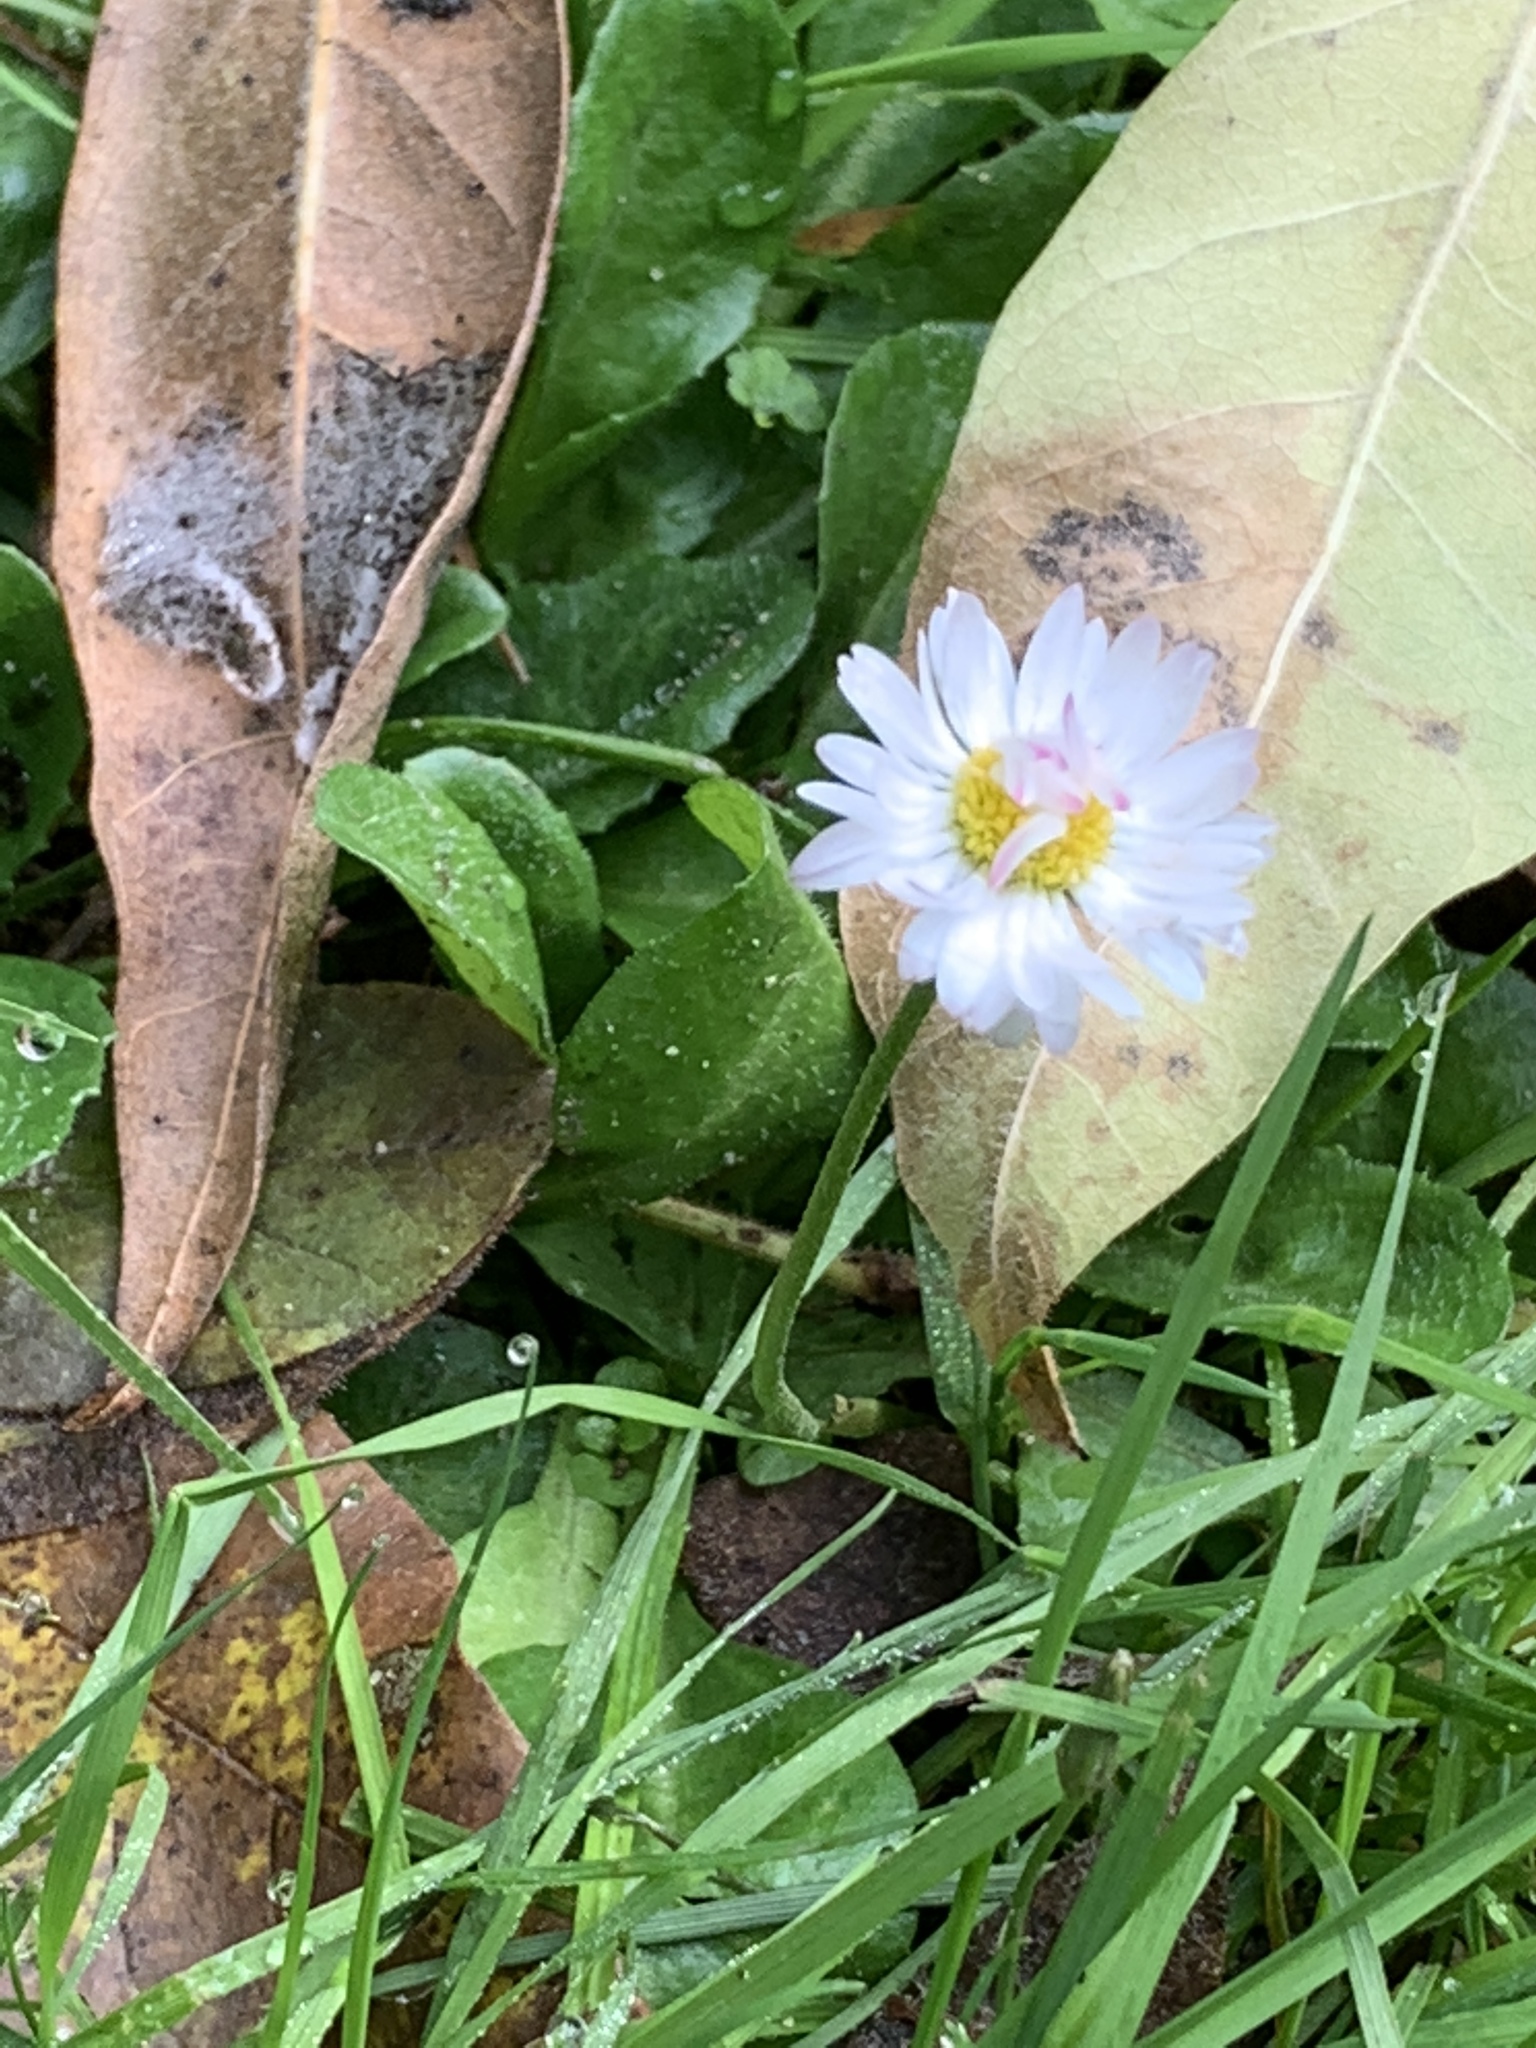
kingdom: Plantae
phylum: Tracheophyta
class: Magnoliopsida
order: Asterales
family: Asteraceae
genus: Bellis
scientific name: Bellis perennis
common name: Lawndaisy
